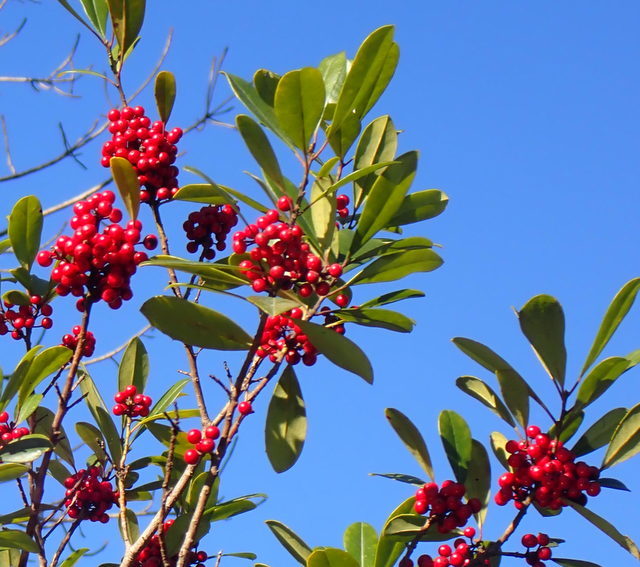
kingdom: Plantae
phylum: Tracheophyta
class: Magnoliopsida
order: Aquifoliales
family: Aquifoliaceae
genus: Ilex
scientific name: Ilex cassine
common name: Dahoon
